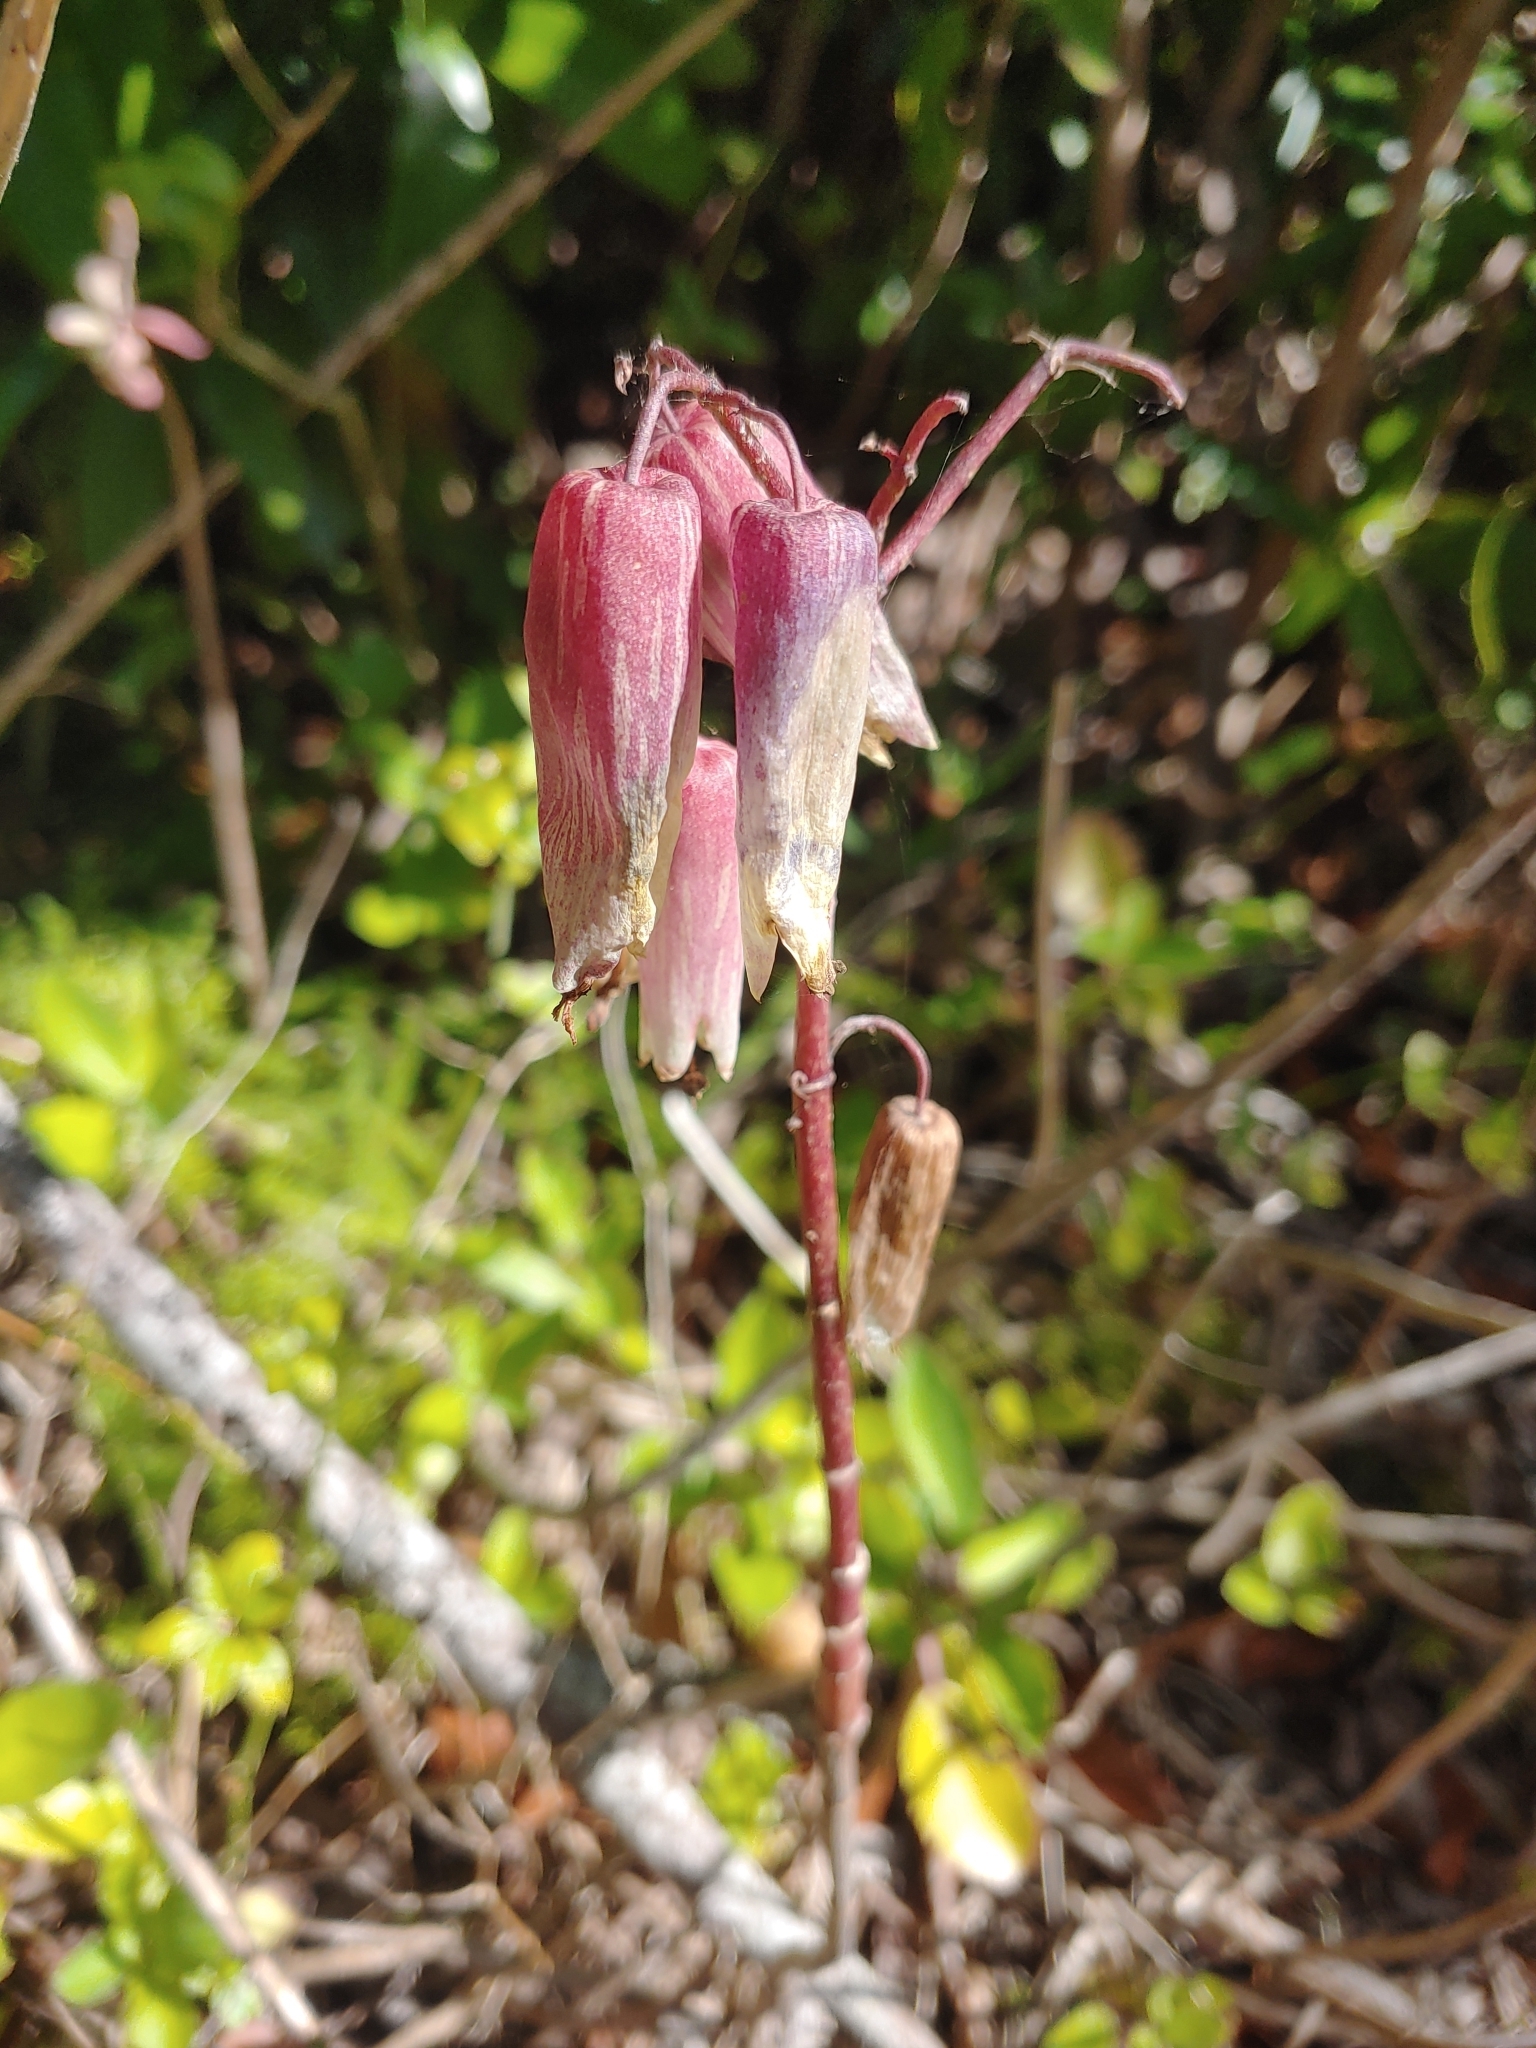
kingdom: Plantae
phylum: Tracheophyta
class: Magnoliopsida
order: Saxifragales
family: Crassulaceae
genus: Kalanchoe
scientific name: Kalanchoe pinnata
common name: Cathedral bells
